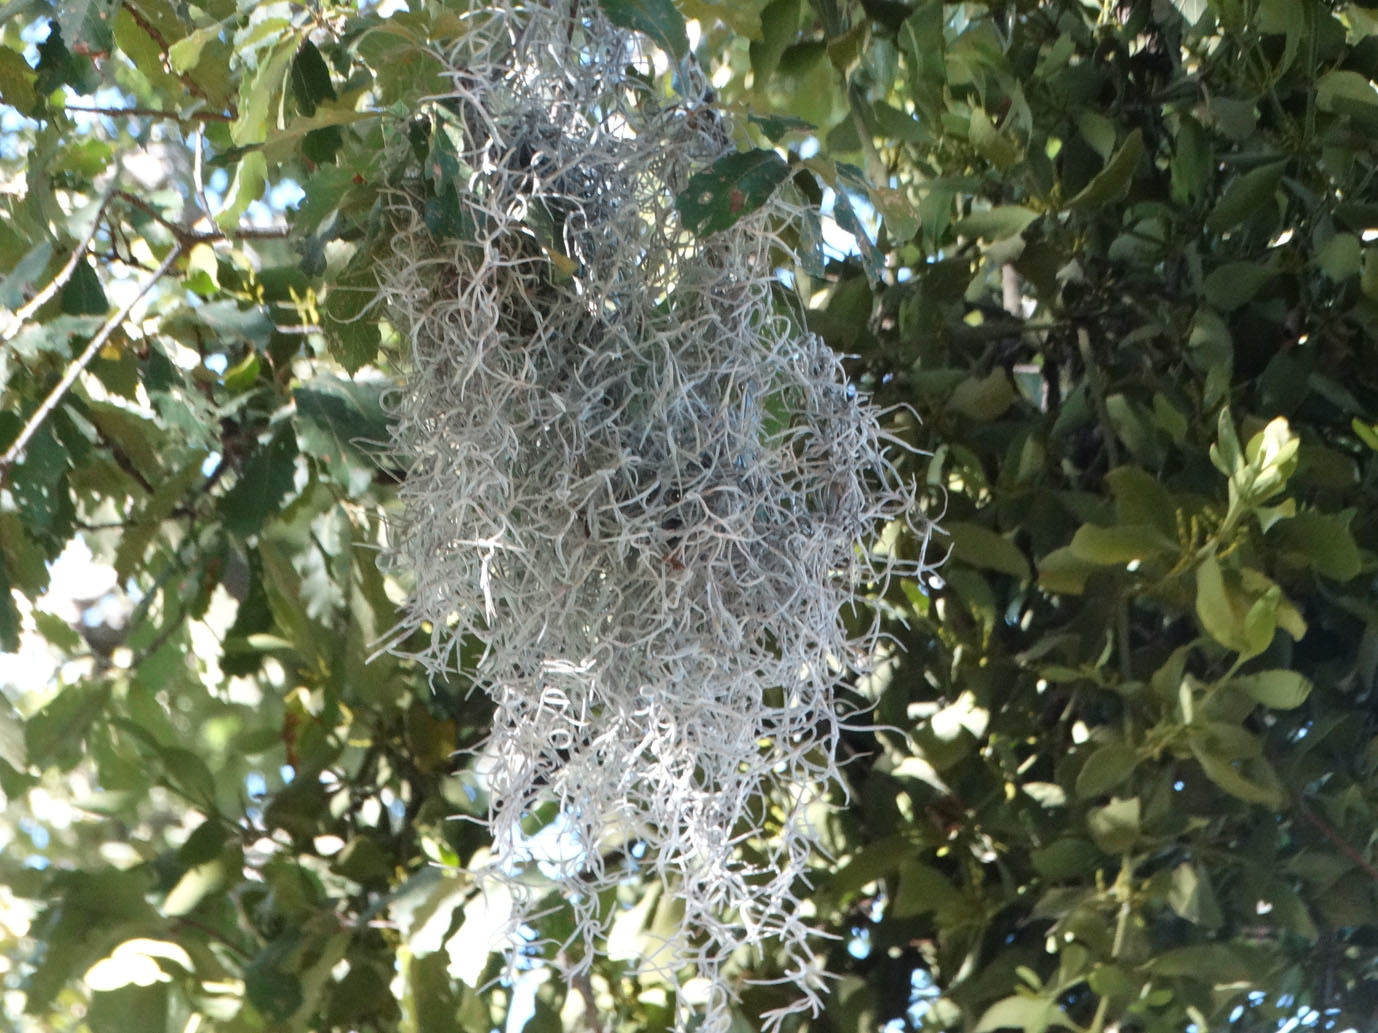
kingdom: Plantae
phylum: Tracheophyta
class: Liliopsida
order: Poales
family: Bromeliaceae
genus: Tillandsia
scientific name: Tillandsia usneoides
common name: Spanish moss
